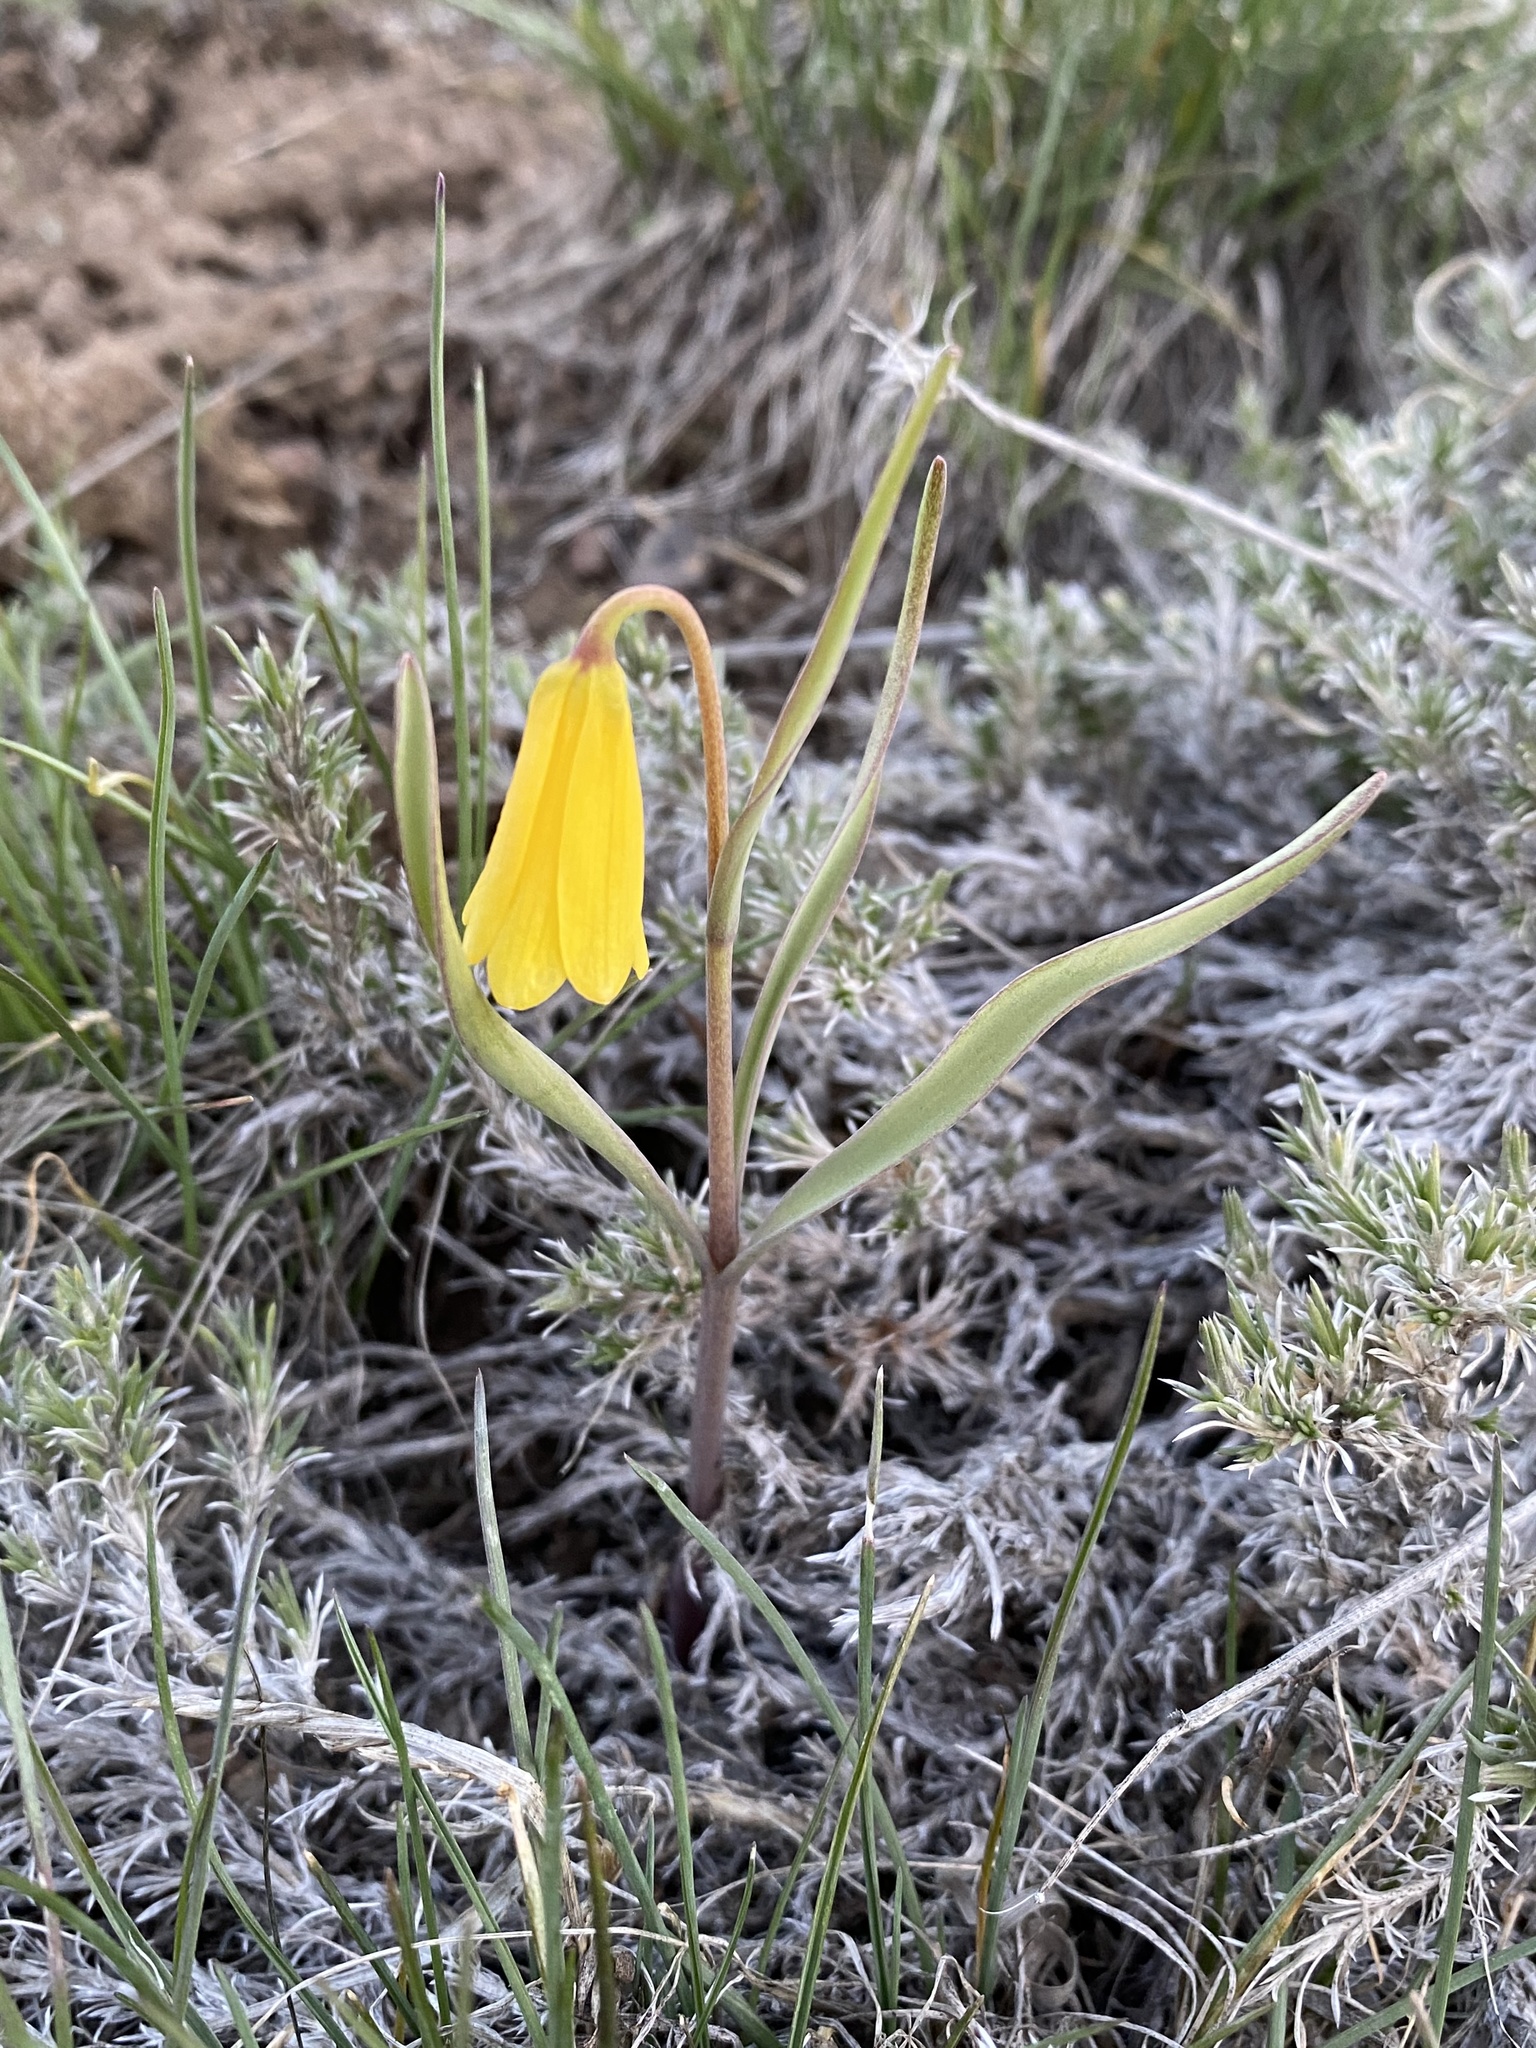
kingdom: Plantae
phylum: Tracheophyta
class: Liliopsida
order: Liliales
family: Liliaceae
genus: Fritillaria
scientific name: Fritillaria pudica
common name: Yellow fritillary
